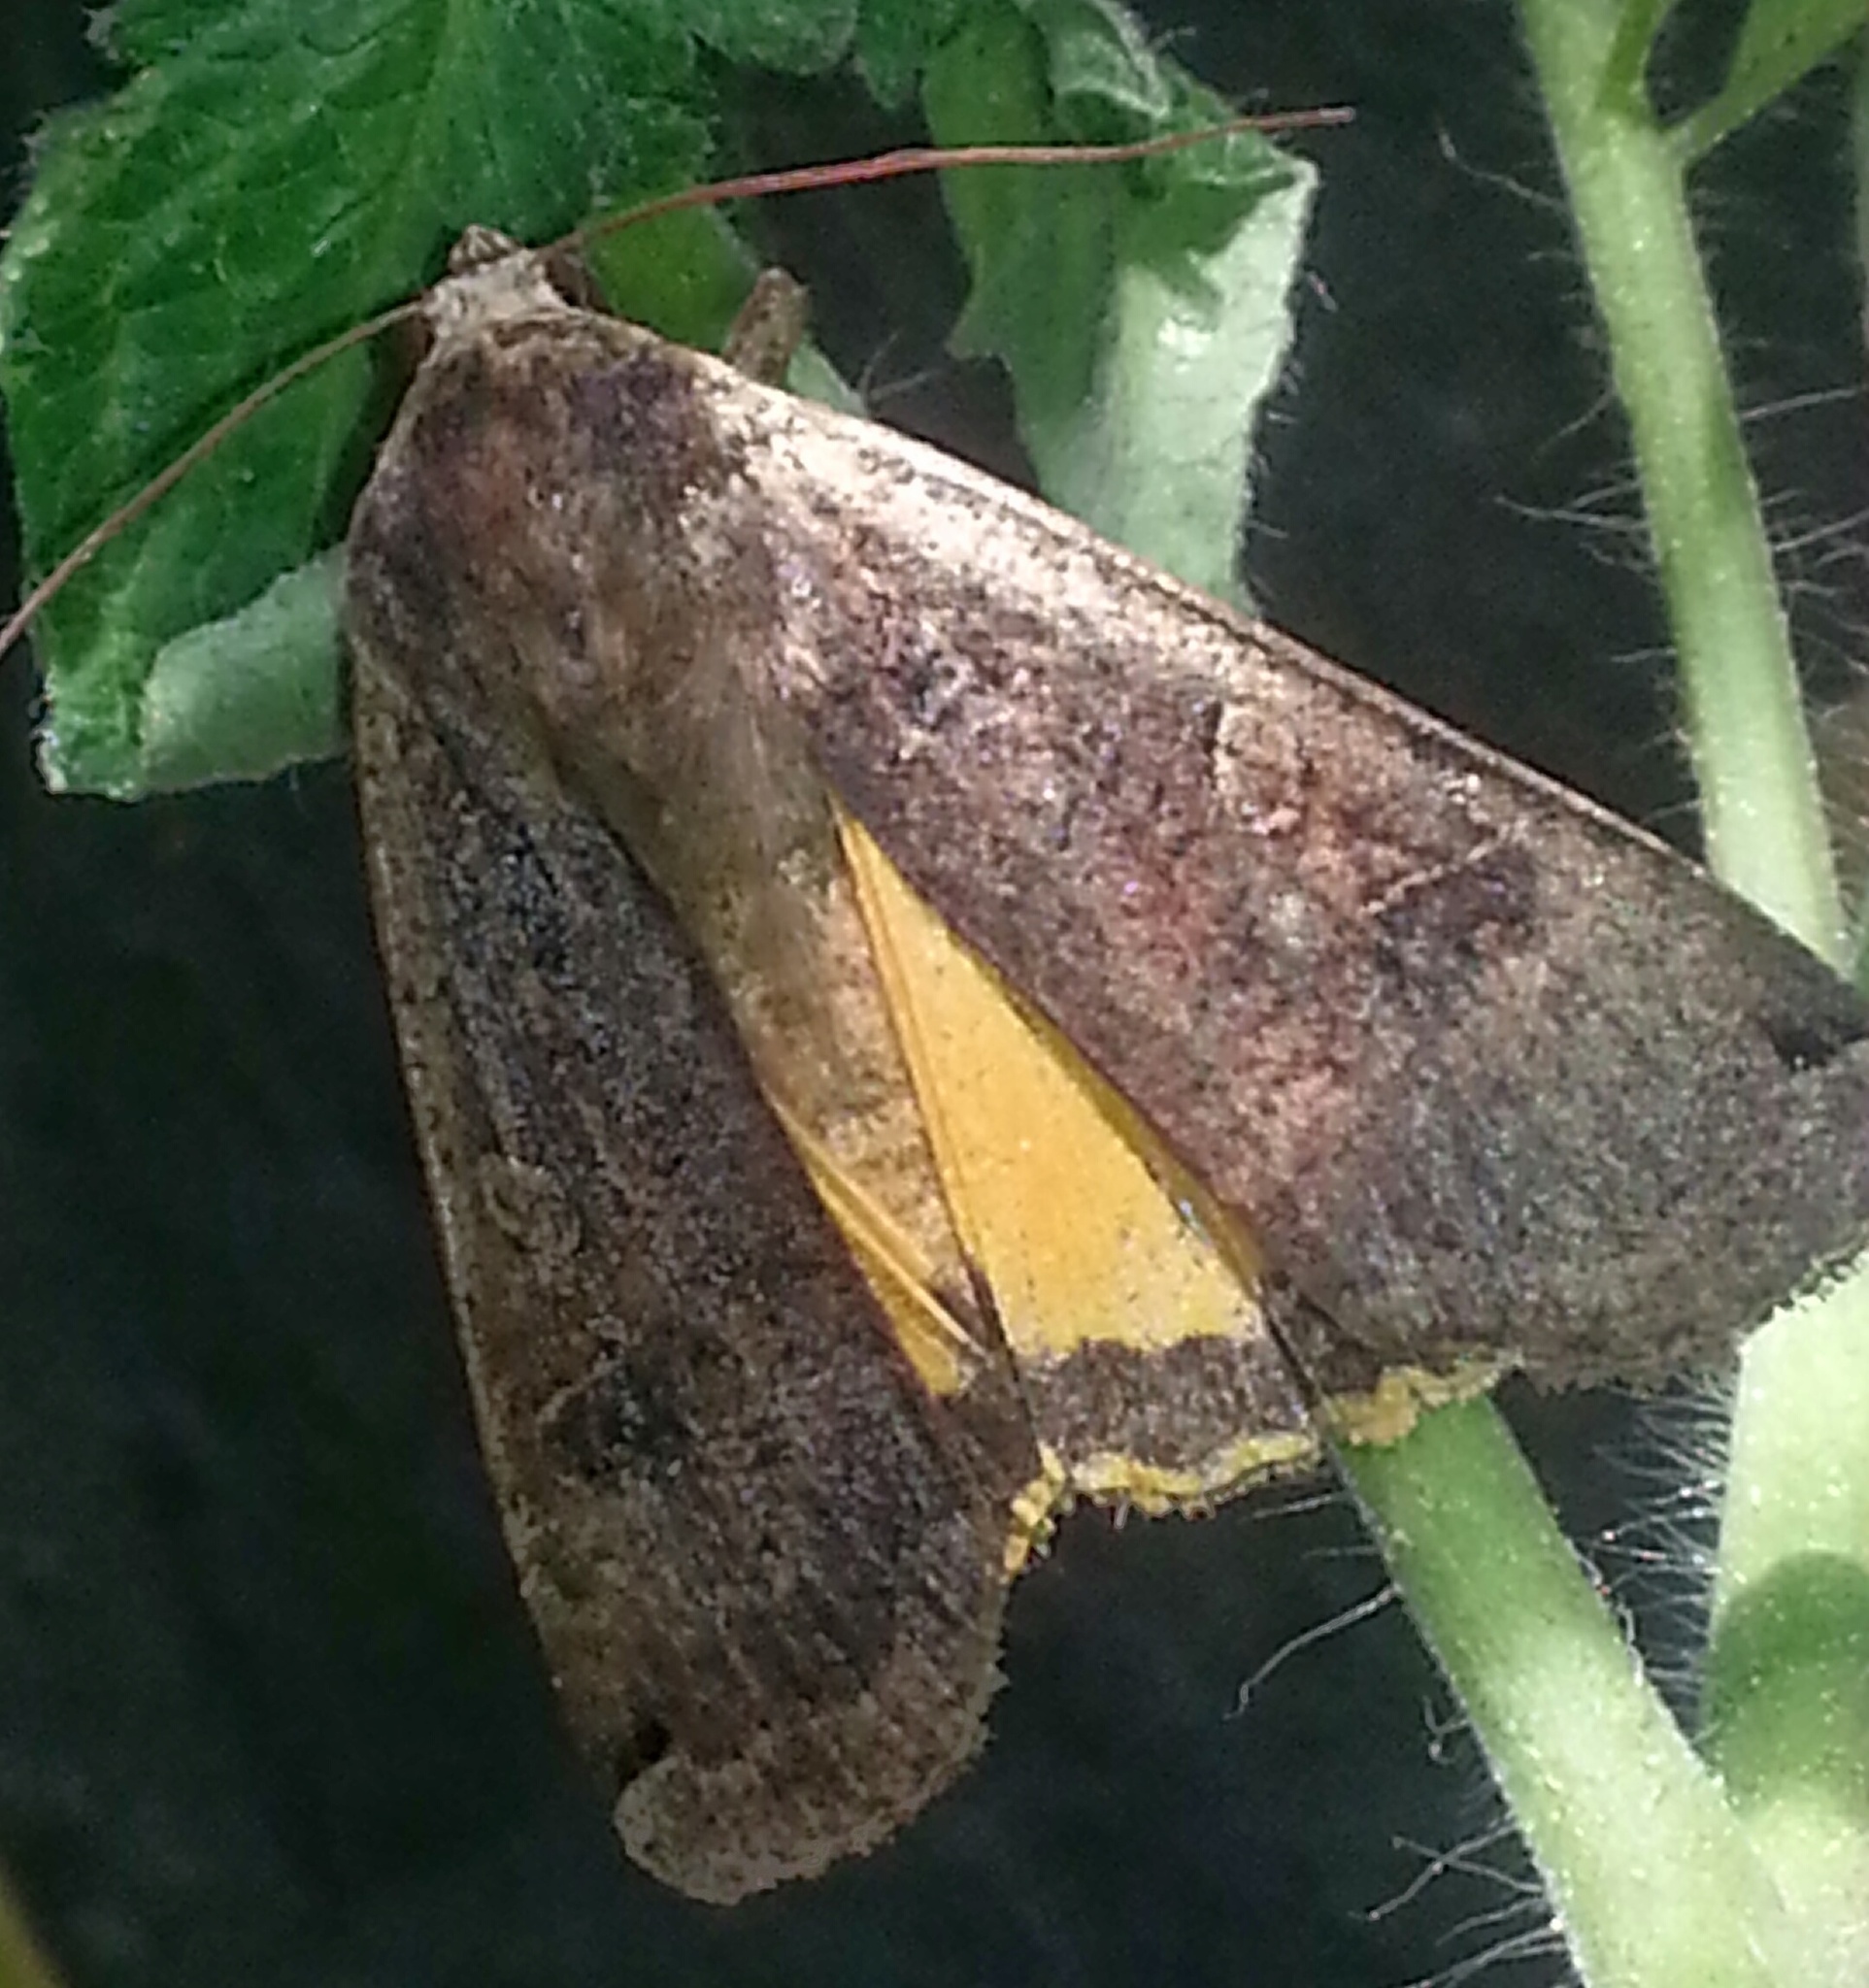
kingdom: Animalia
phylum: Arthropoda
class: Insecta
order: Lepidoptera
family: Noctuidae
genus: Noctua
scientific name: Noctua pronuba
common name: Large yellow underwing
